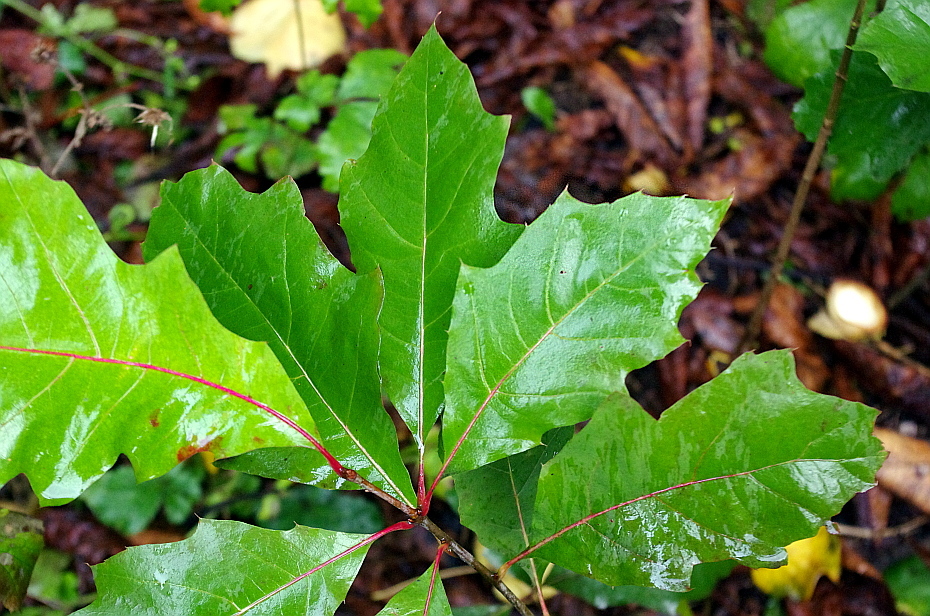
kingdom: Plantae
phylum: Tracheophyta
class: Magnoliopsida
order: Fagales
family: Fagaceae
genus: Quercus
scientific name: Quercus rubra
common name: Red oak
